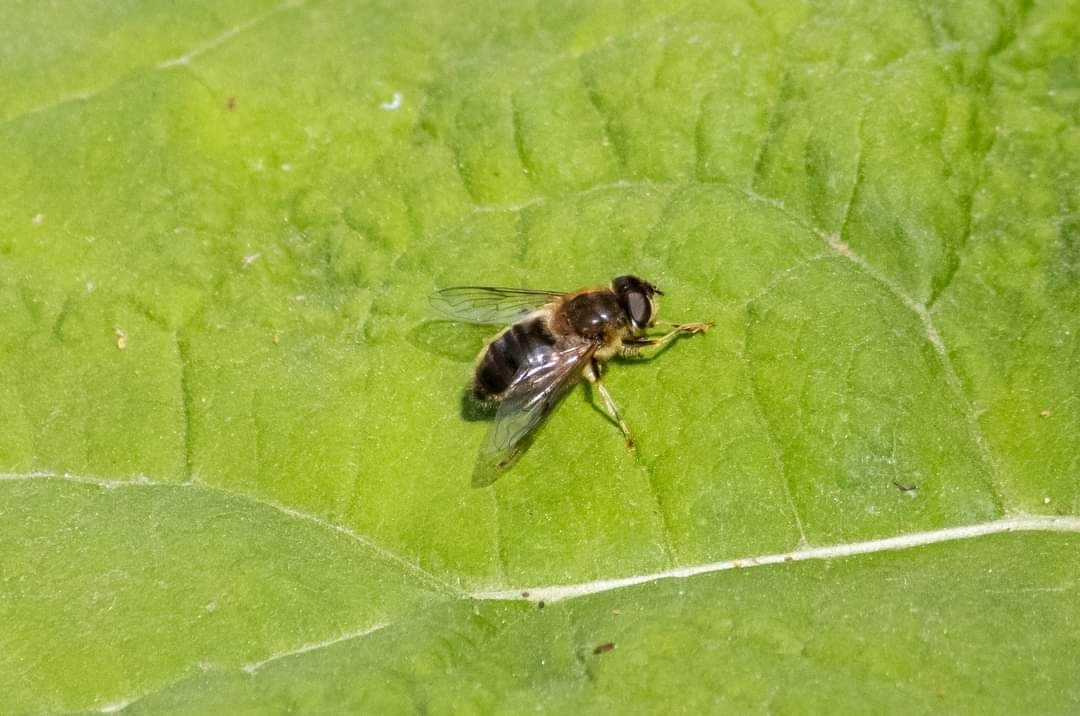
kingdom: Animalia
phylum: Arthropoda
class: Insecta
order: Diptera
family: Syrphidae
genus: Eristalis
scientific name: Eristalis pertinax
